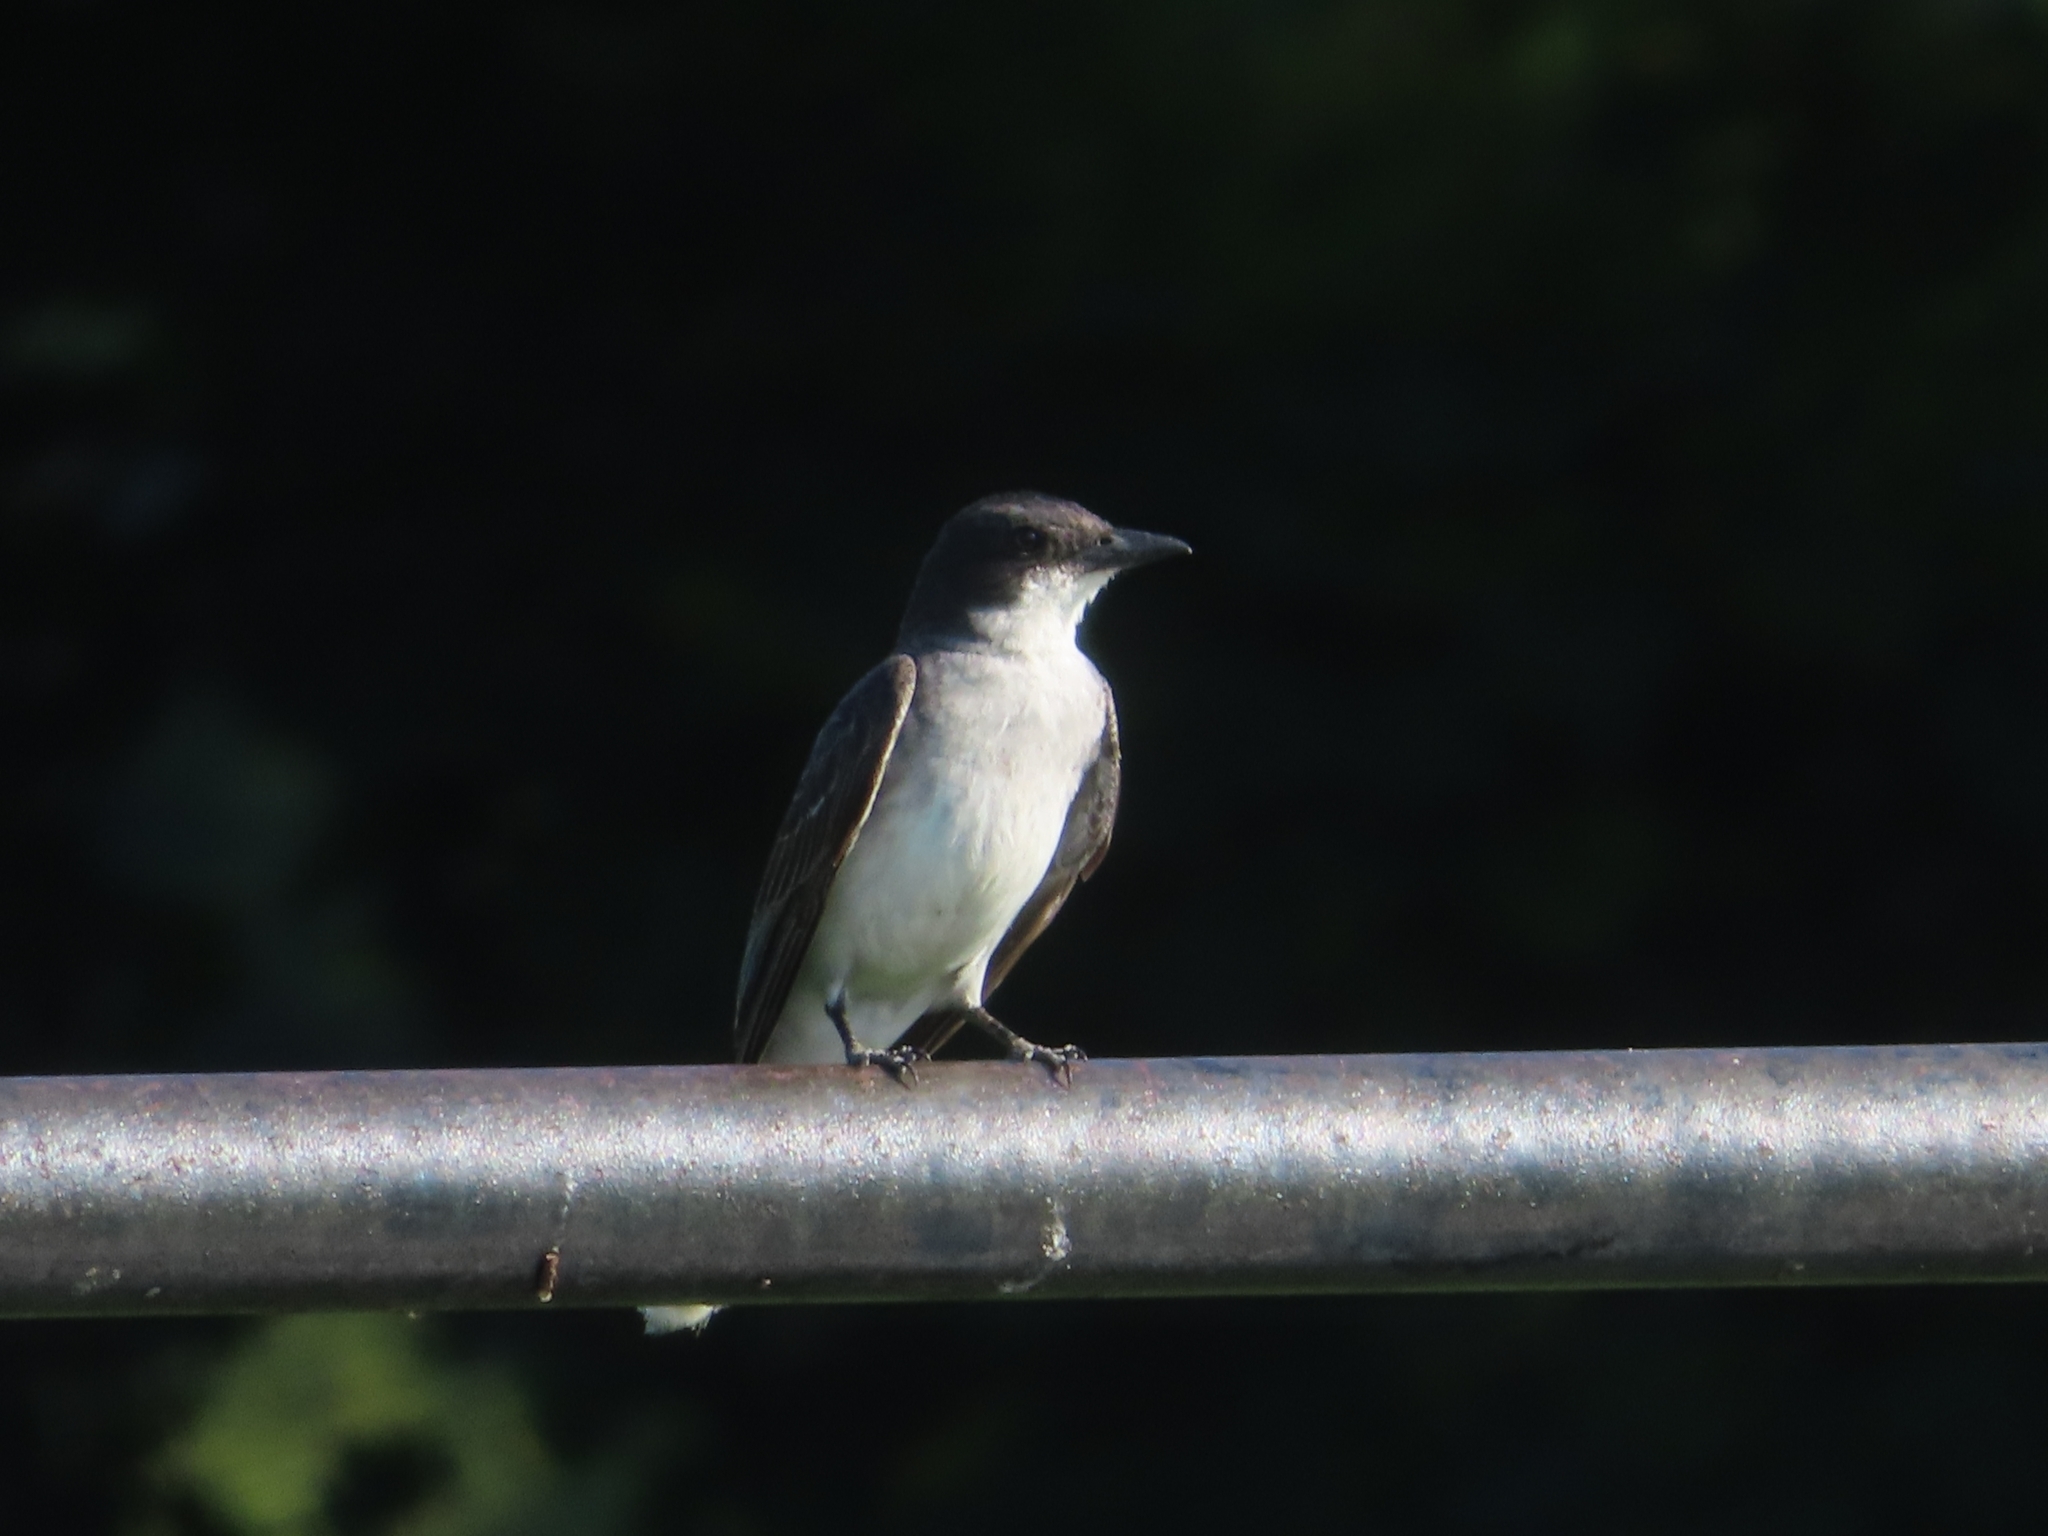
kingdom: Animalia
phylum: Chordata
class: Aves
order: Passeriformes
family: Tyrannidae
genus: Tyrannus
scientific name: Tyrannus tyrannus
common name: Eastern kingbird
